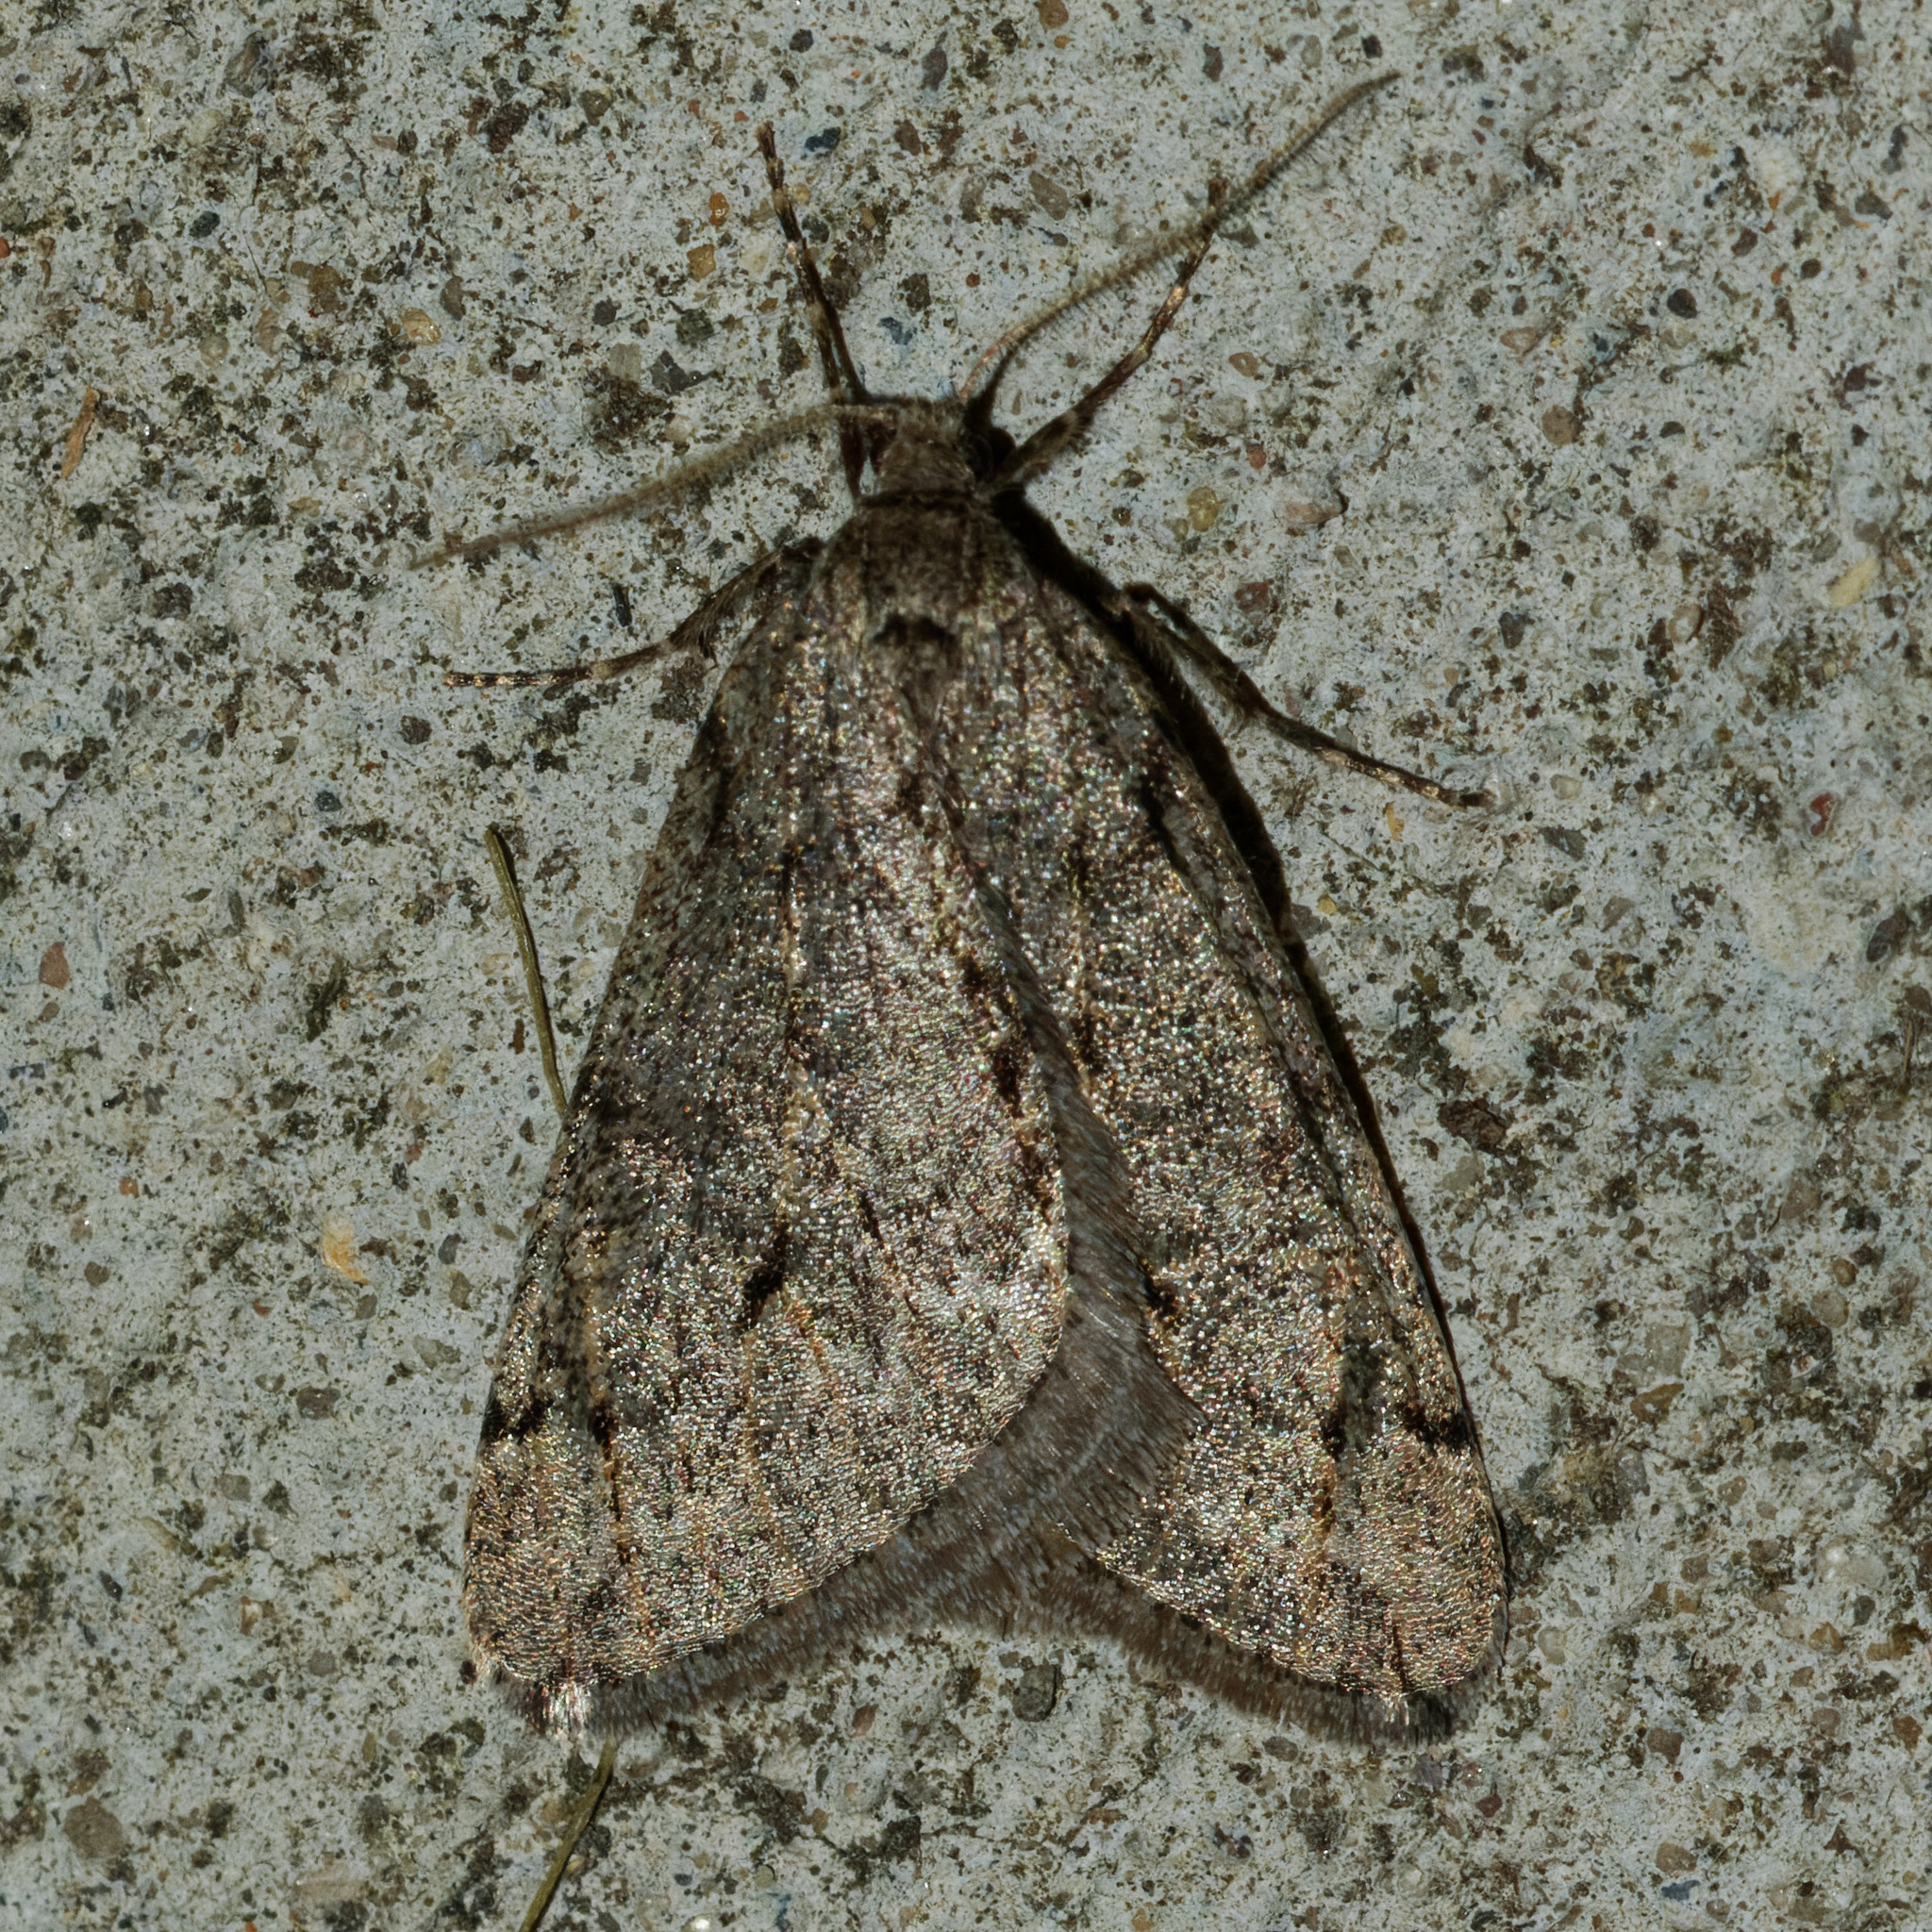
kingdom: Animalia
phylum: Arthropoda
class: Insecta
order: Lepidoptera
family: Geometridae
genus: Paleacrita
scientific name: Paleacrita vernata
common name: Spring cankerworm
